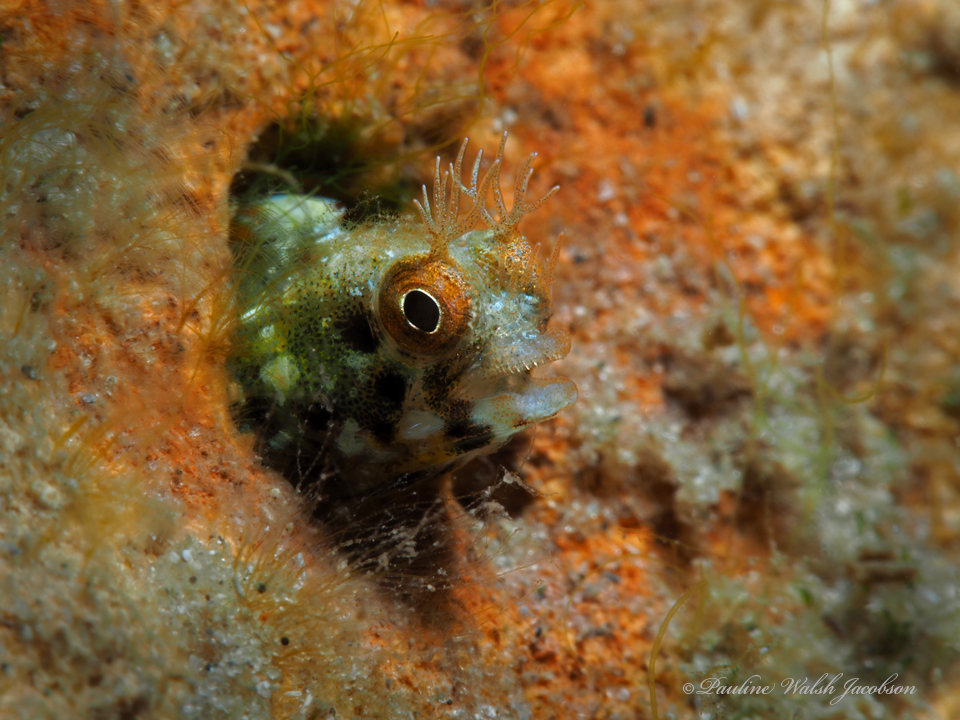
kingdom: Animalia
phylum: Chordata
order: Perciformes
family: Chaenopsidae
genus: Acanthemblemaria
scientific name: Acanthemblemaria aspera
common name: Roughhead blenny
